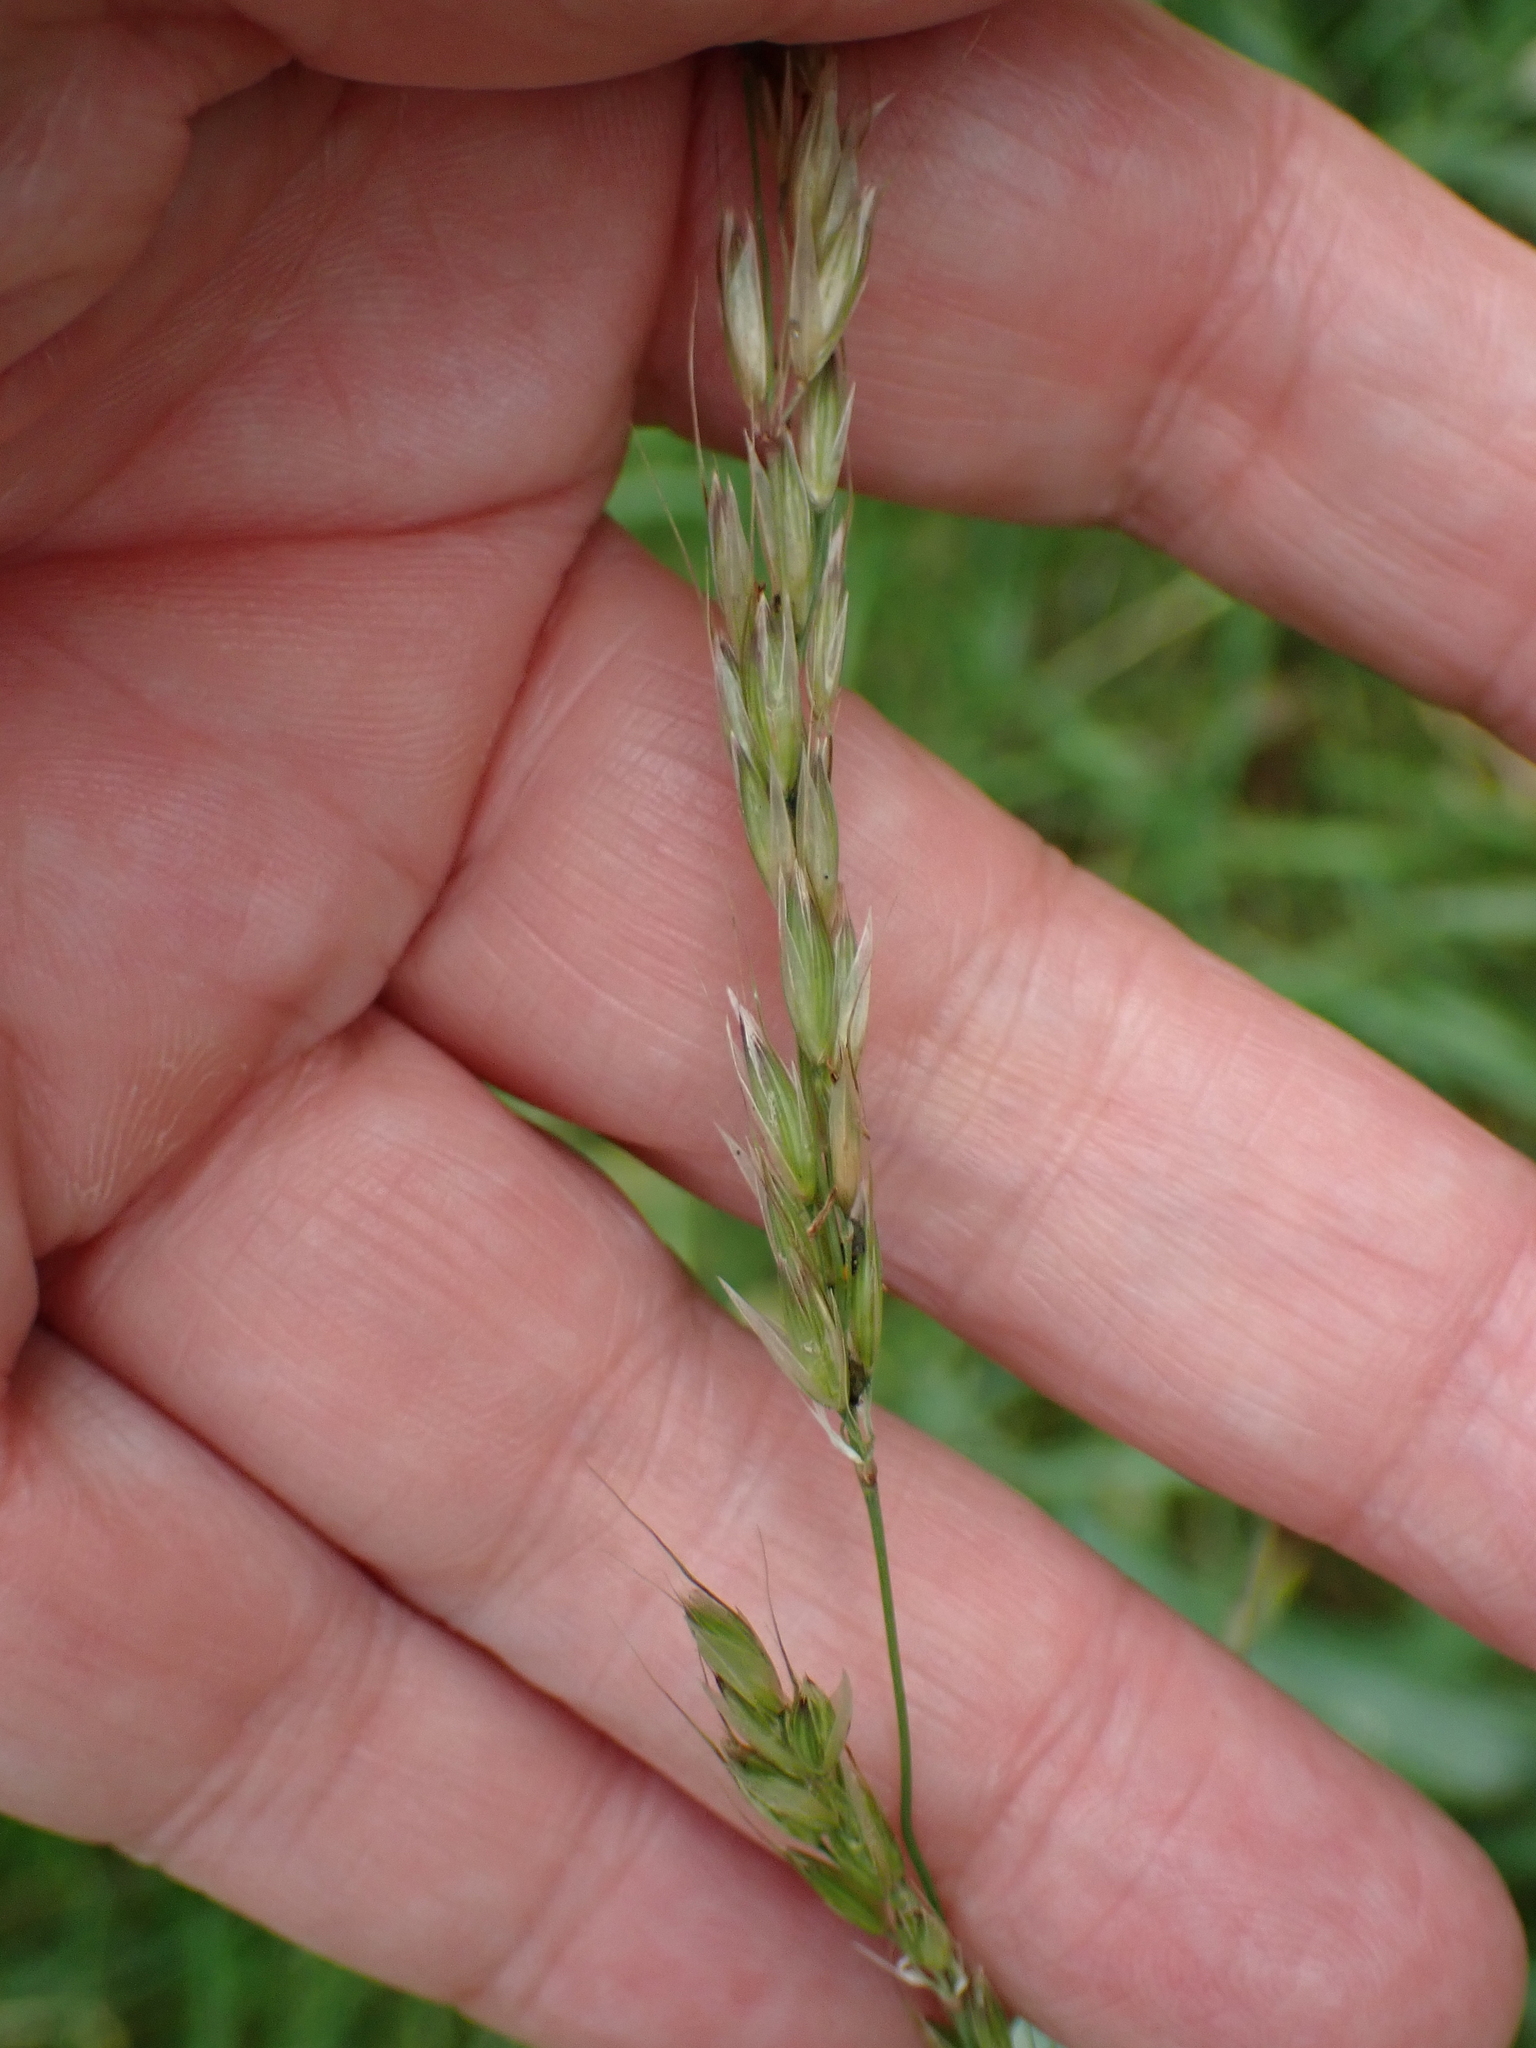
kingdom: Plantae
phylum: Tracheophyta
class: Liliopsida
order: Poales
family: Poaceae
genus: Arrhenatherum
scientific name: Arrhenatherum elatius
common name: Tall oatgrass
